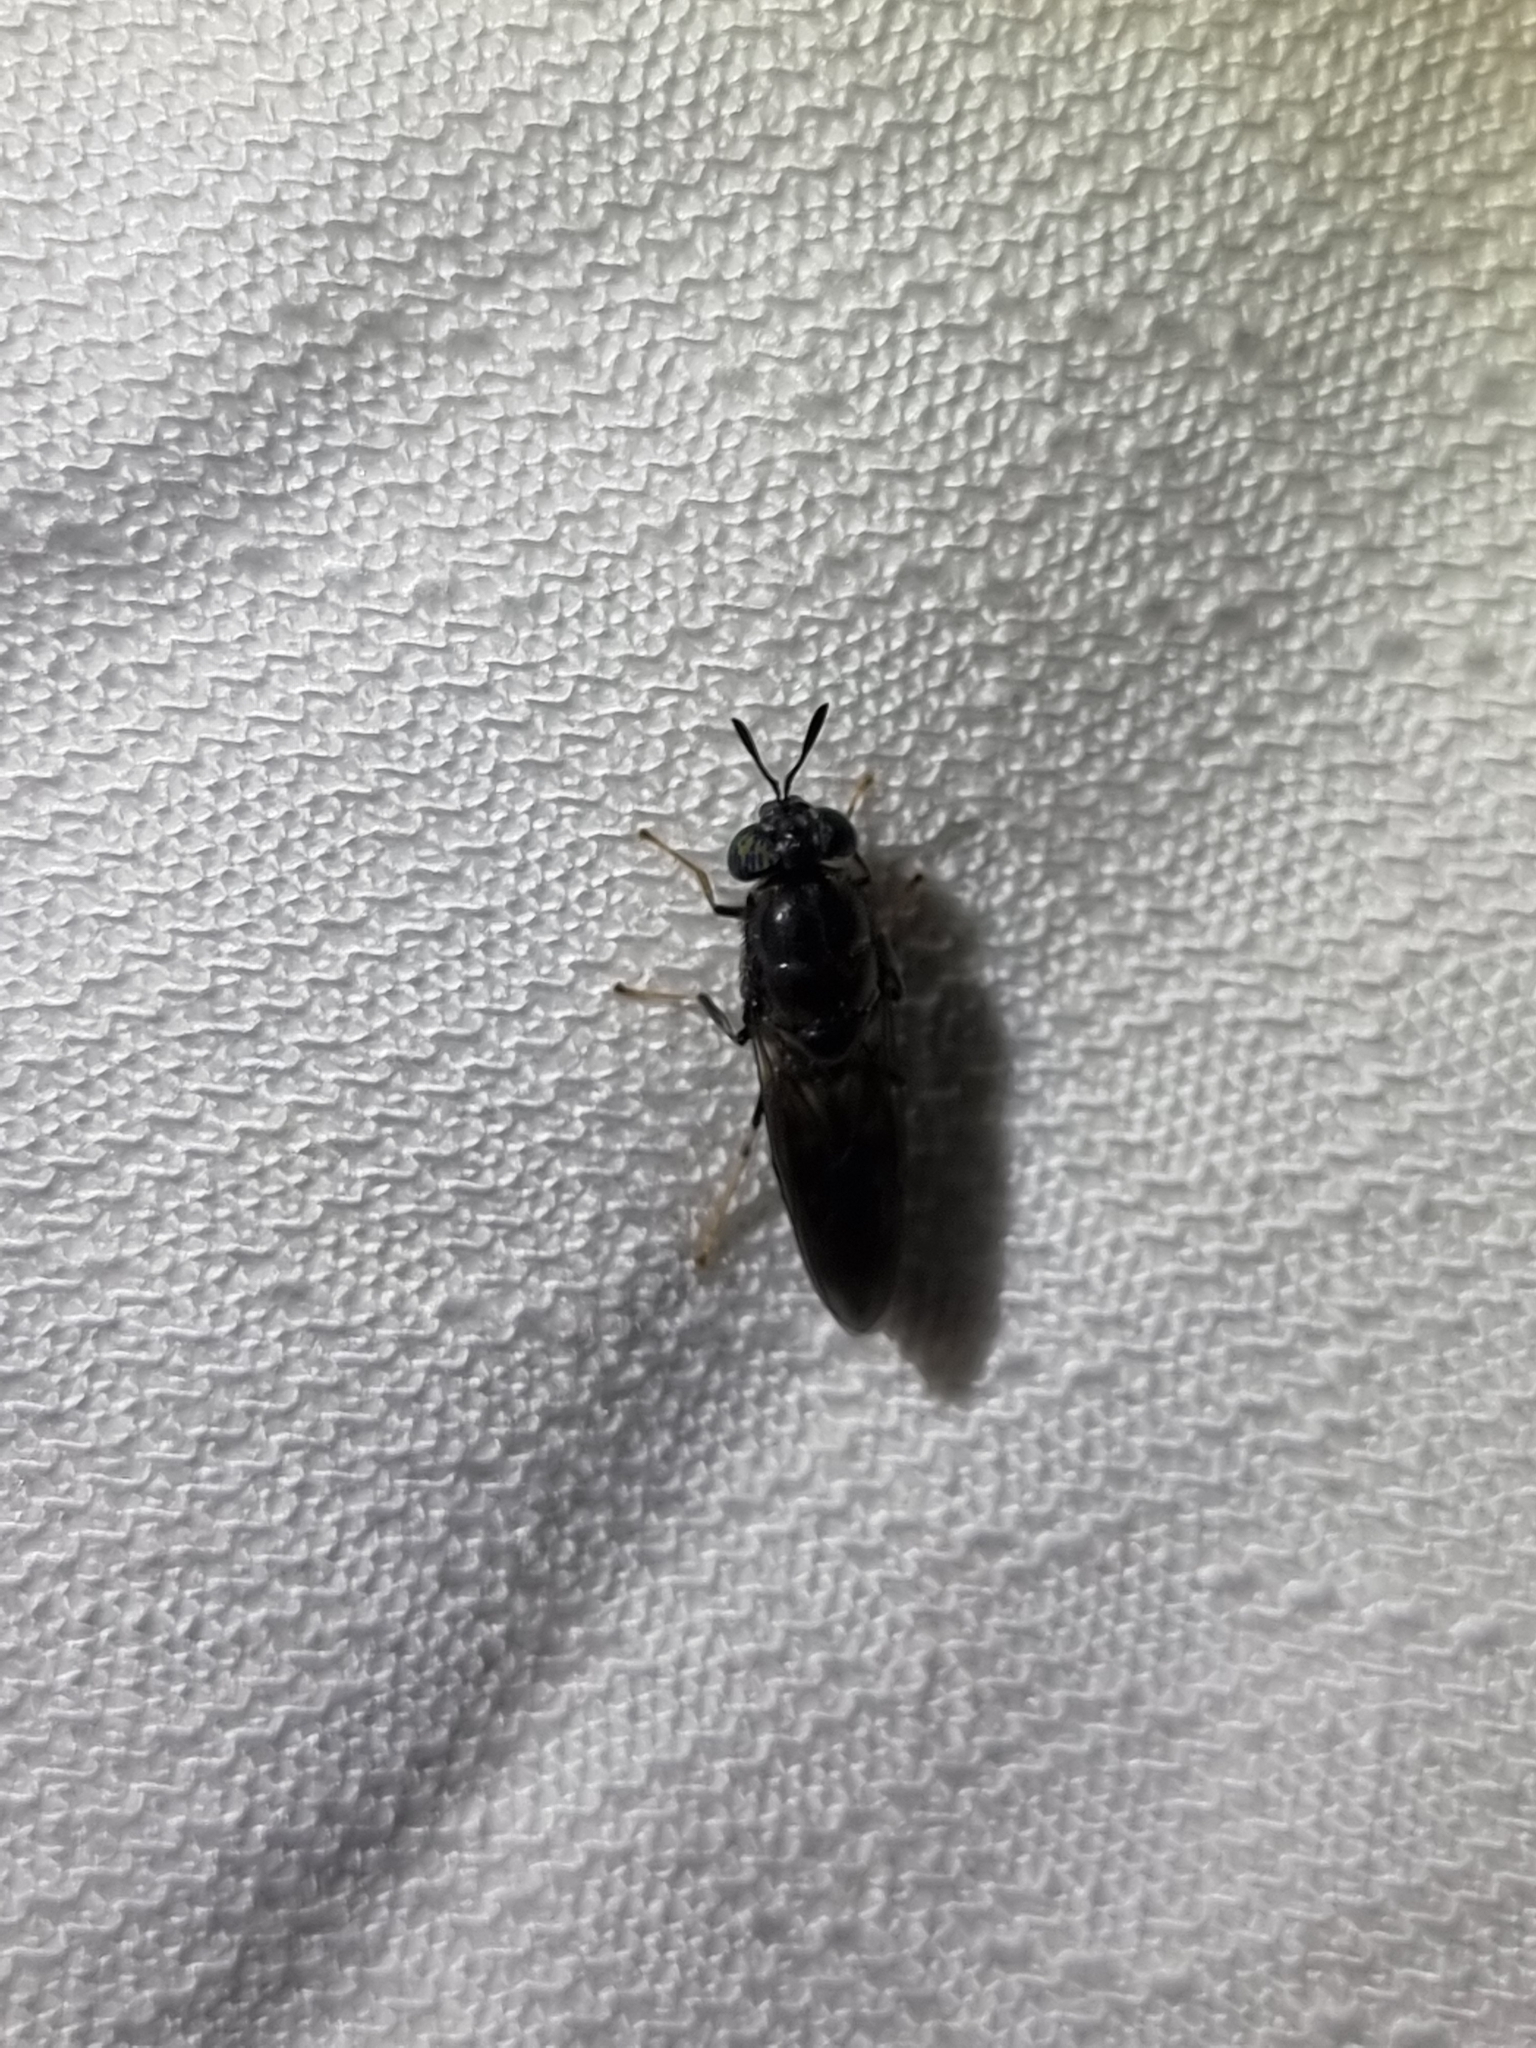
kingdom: Animalia
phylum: Arthropoda
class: Insecta
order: Diptera
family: Stratiomyidae
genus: Hermetia
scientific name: Hermetia illucens
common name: Black soldier fly
